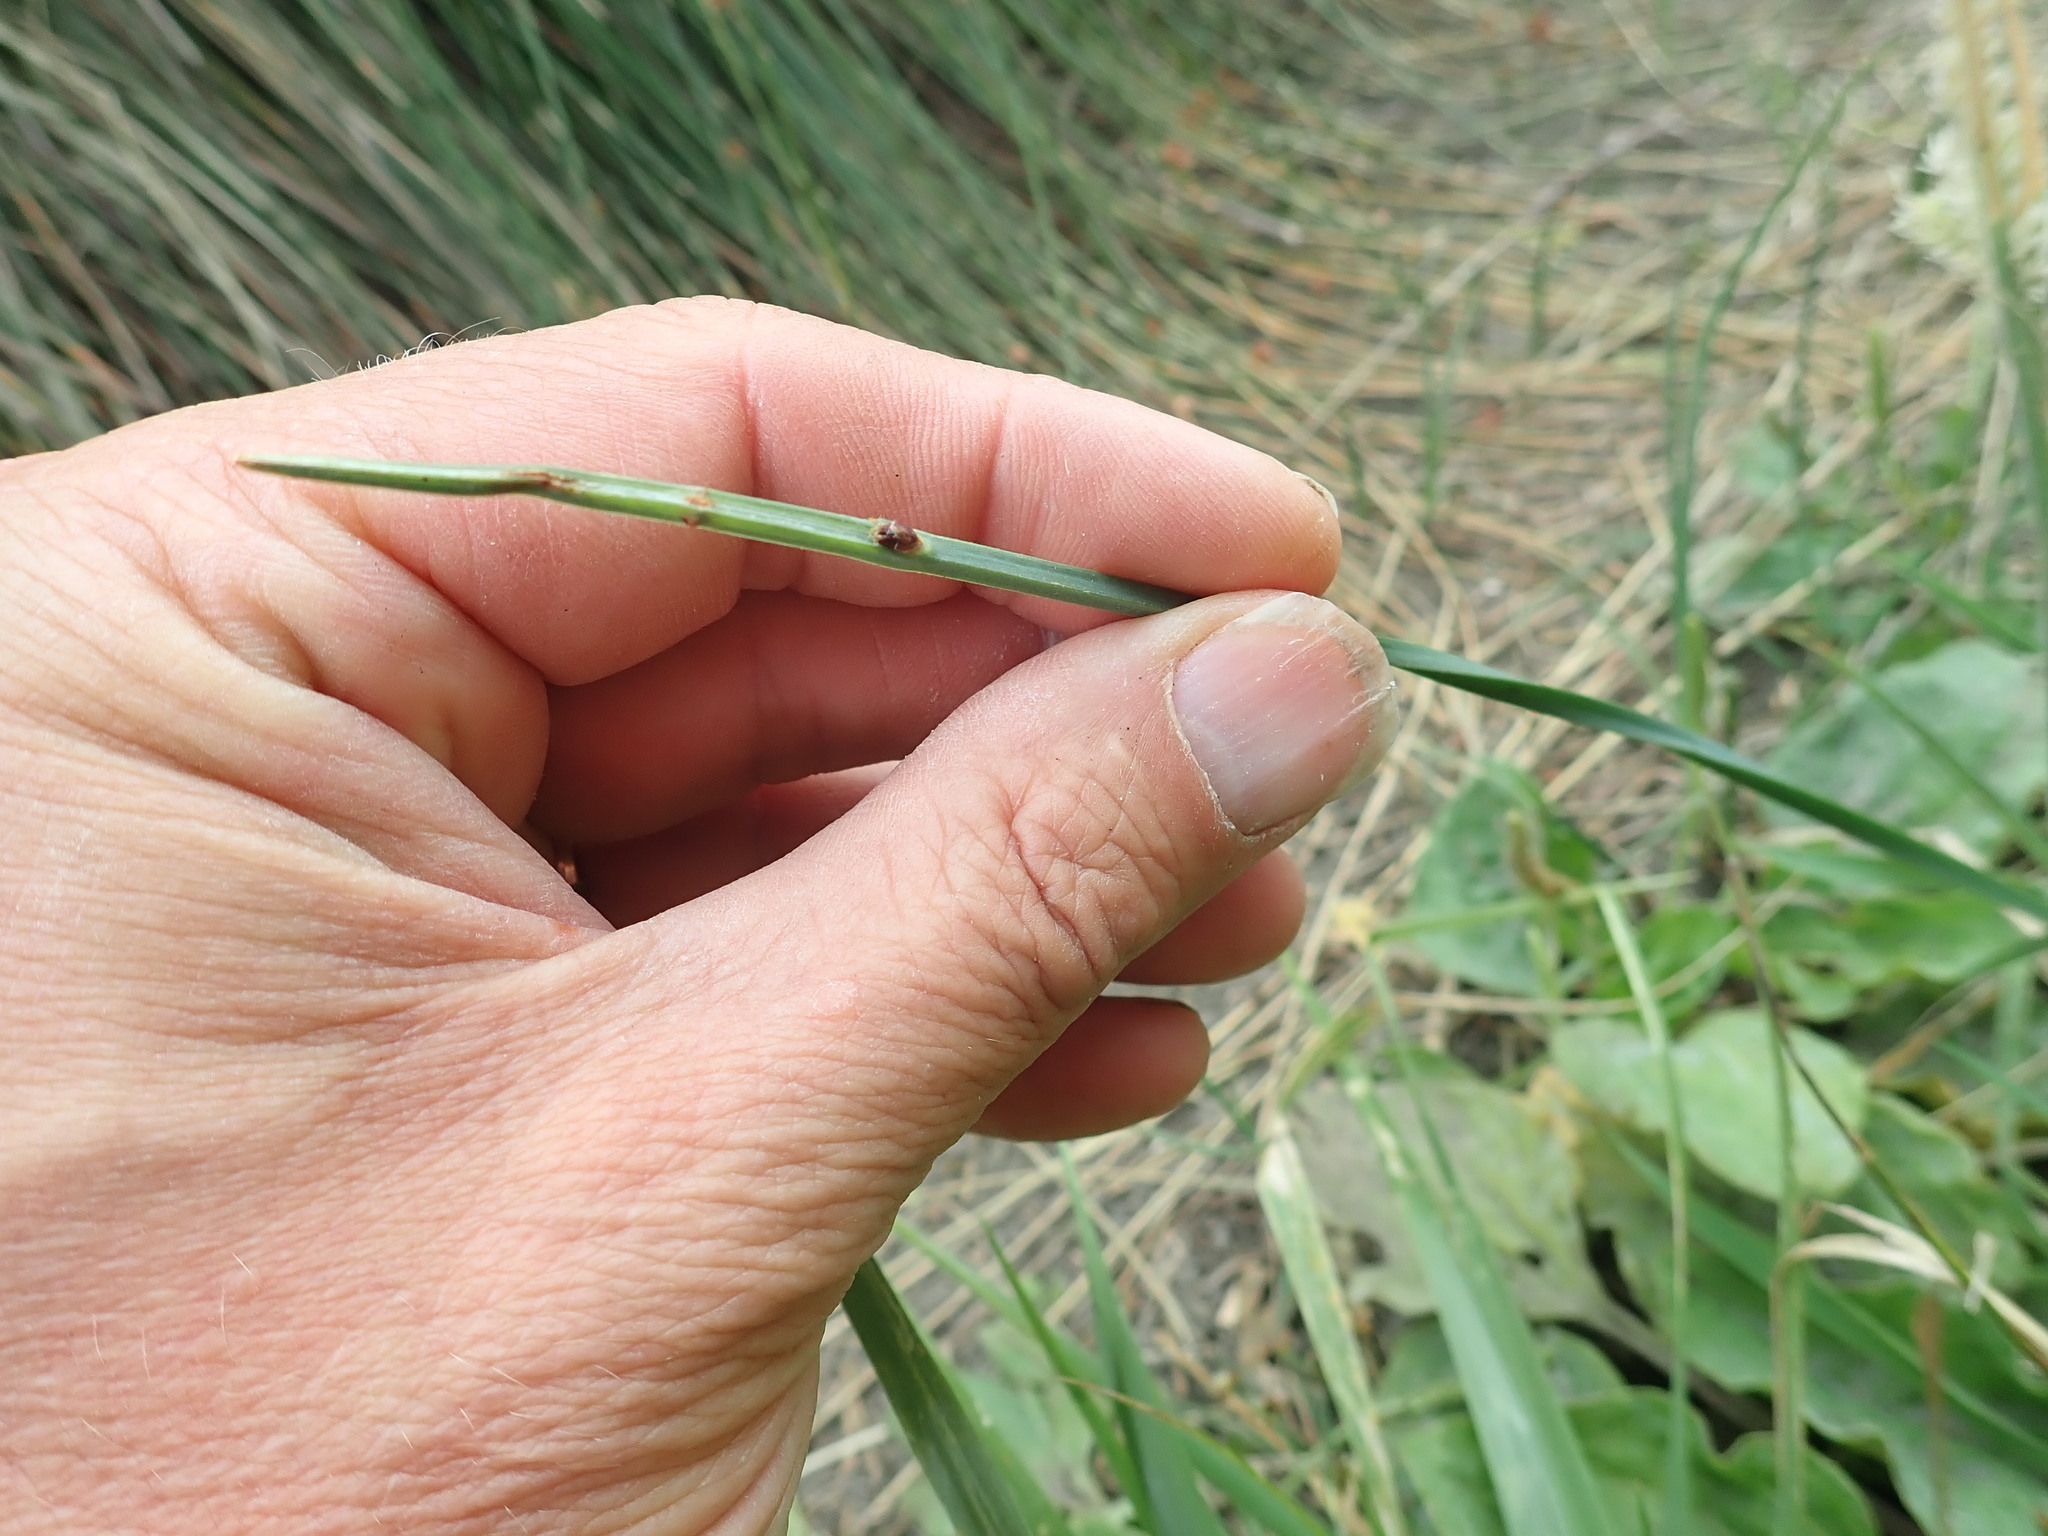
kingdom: Plantae
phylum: Tracheophyta
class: Liliopsida
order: Poales
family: Cyperaceae
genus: Schoenoplectus
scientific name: Schoenoplectus pungens
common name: Sharp club-rush
